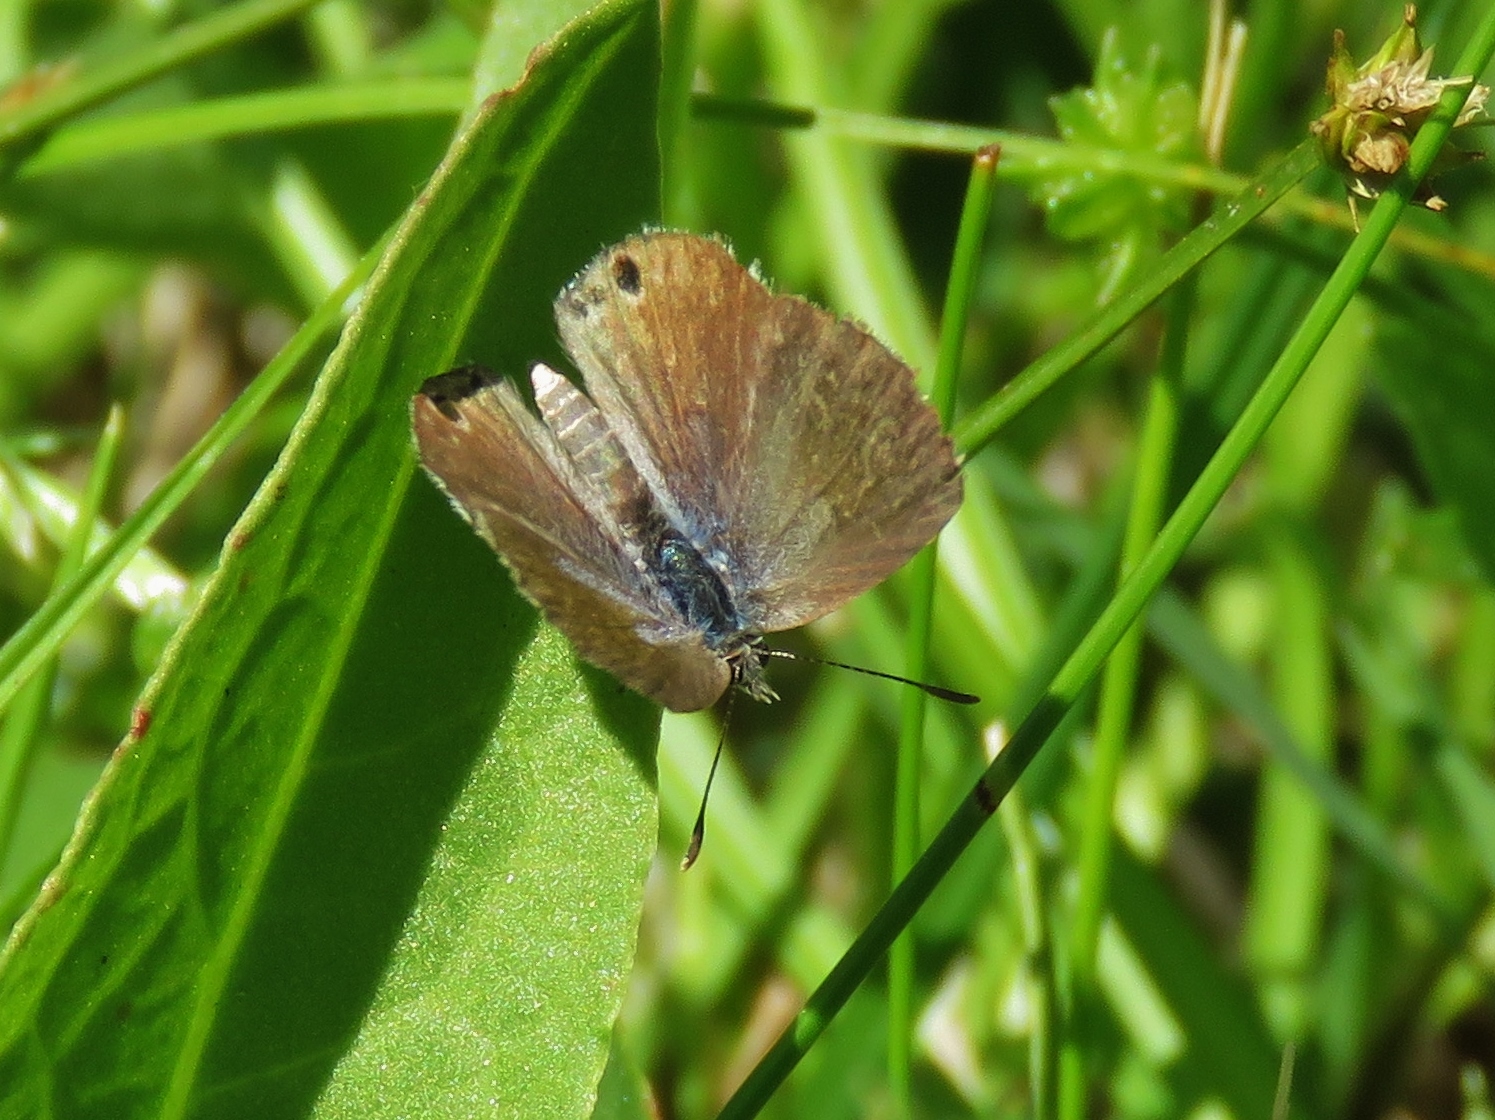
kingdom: Animalia
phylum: Arthropoda
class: Insecta
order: Lepidoptera
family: Lycaenidae
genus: Echinargus
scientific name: Echinargus isola
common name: Reakirt's blue
